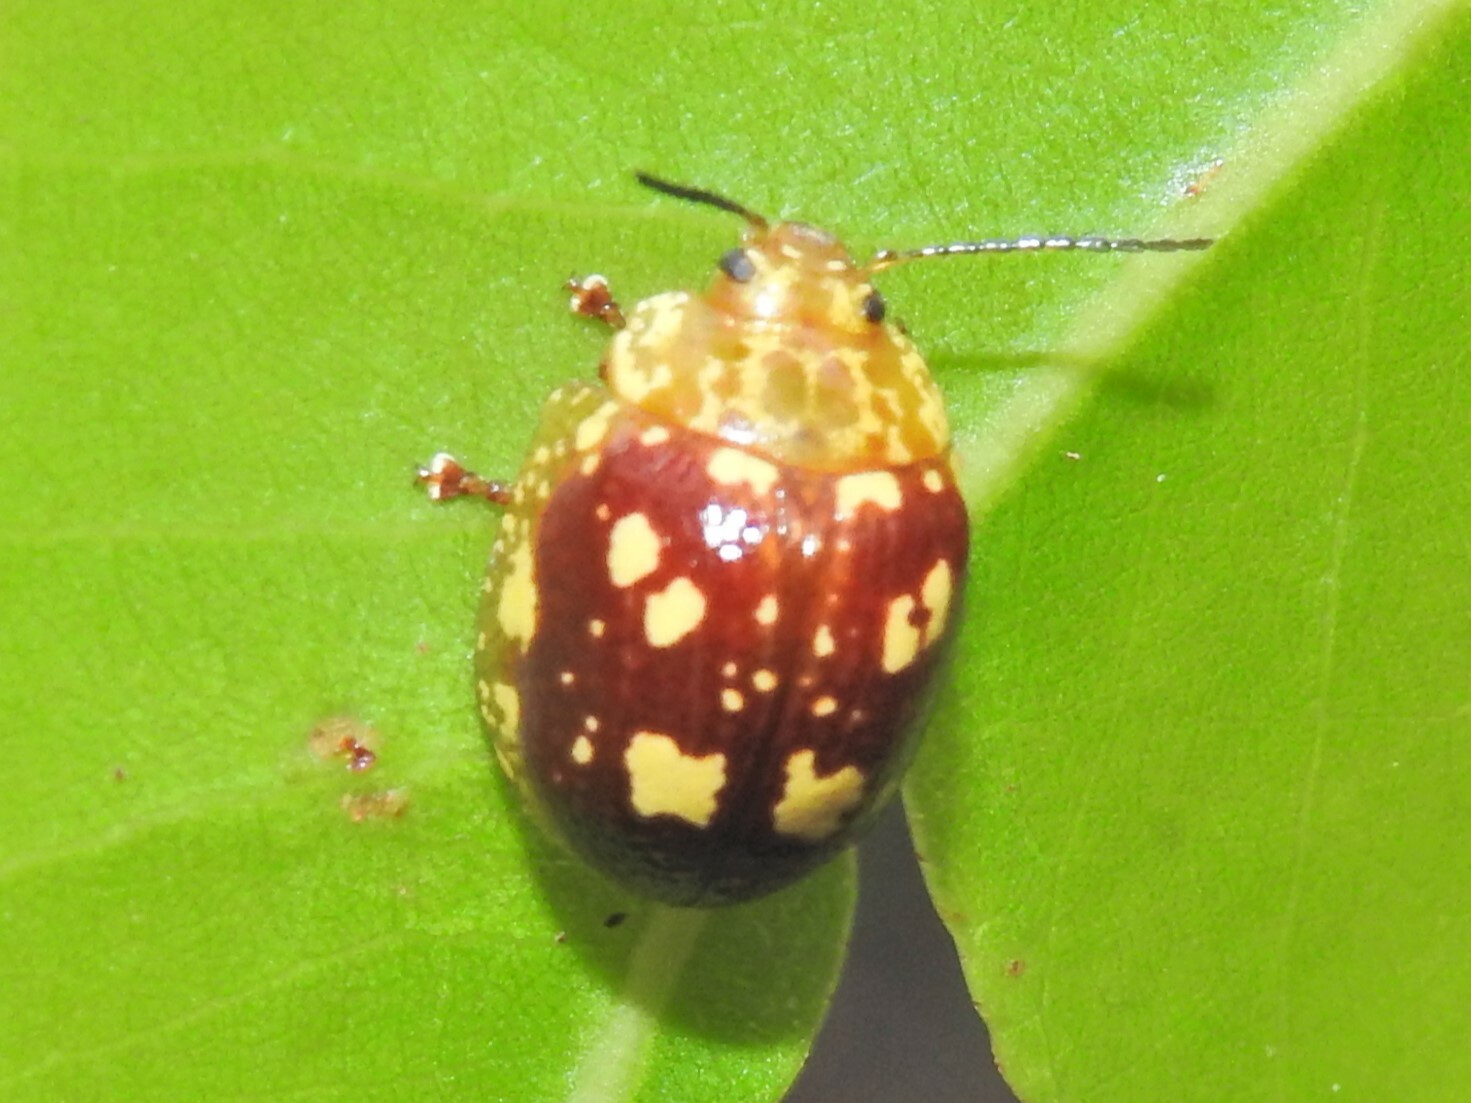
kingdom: Animalia
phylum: Arthropoda
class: Insecta
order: Coleoptera
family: Chrysomelidae
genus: Paropsis
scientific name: Paropsis maculata
